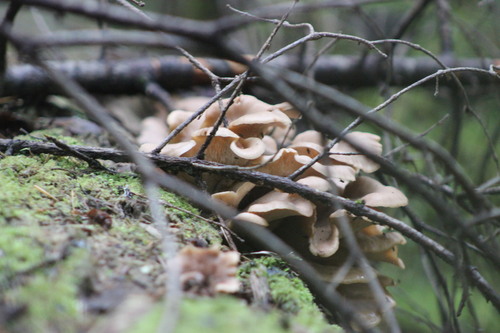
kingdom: Fungi
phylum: Basidiomycota
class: Agaricomycetes
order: Agaricales
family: Pleurotaceae
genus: Hohenbuehelia
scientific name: Hohenbuehelia petaloides
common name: Shoehorn oyster
